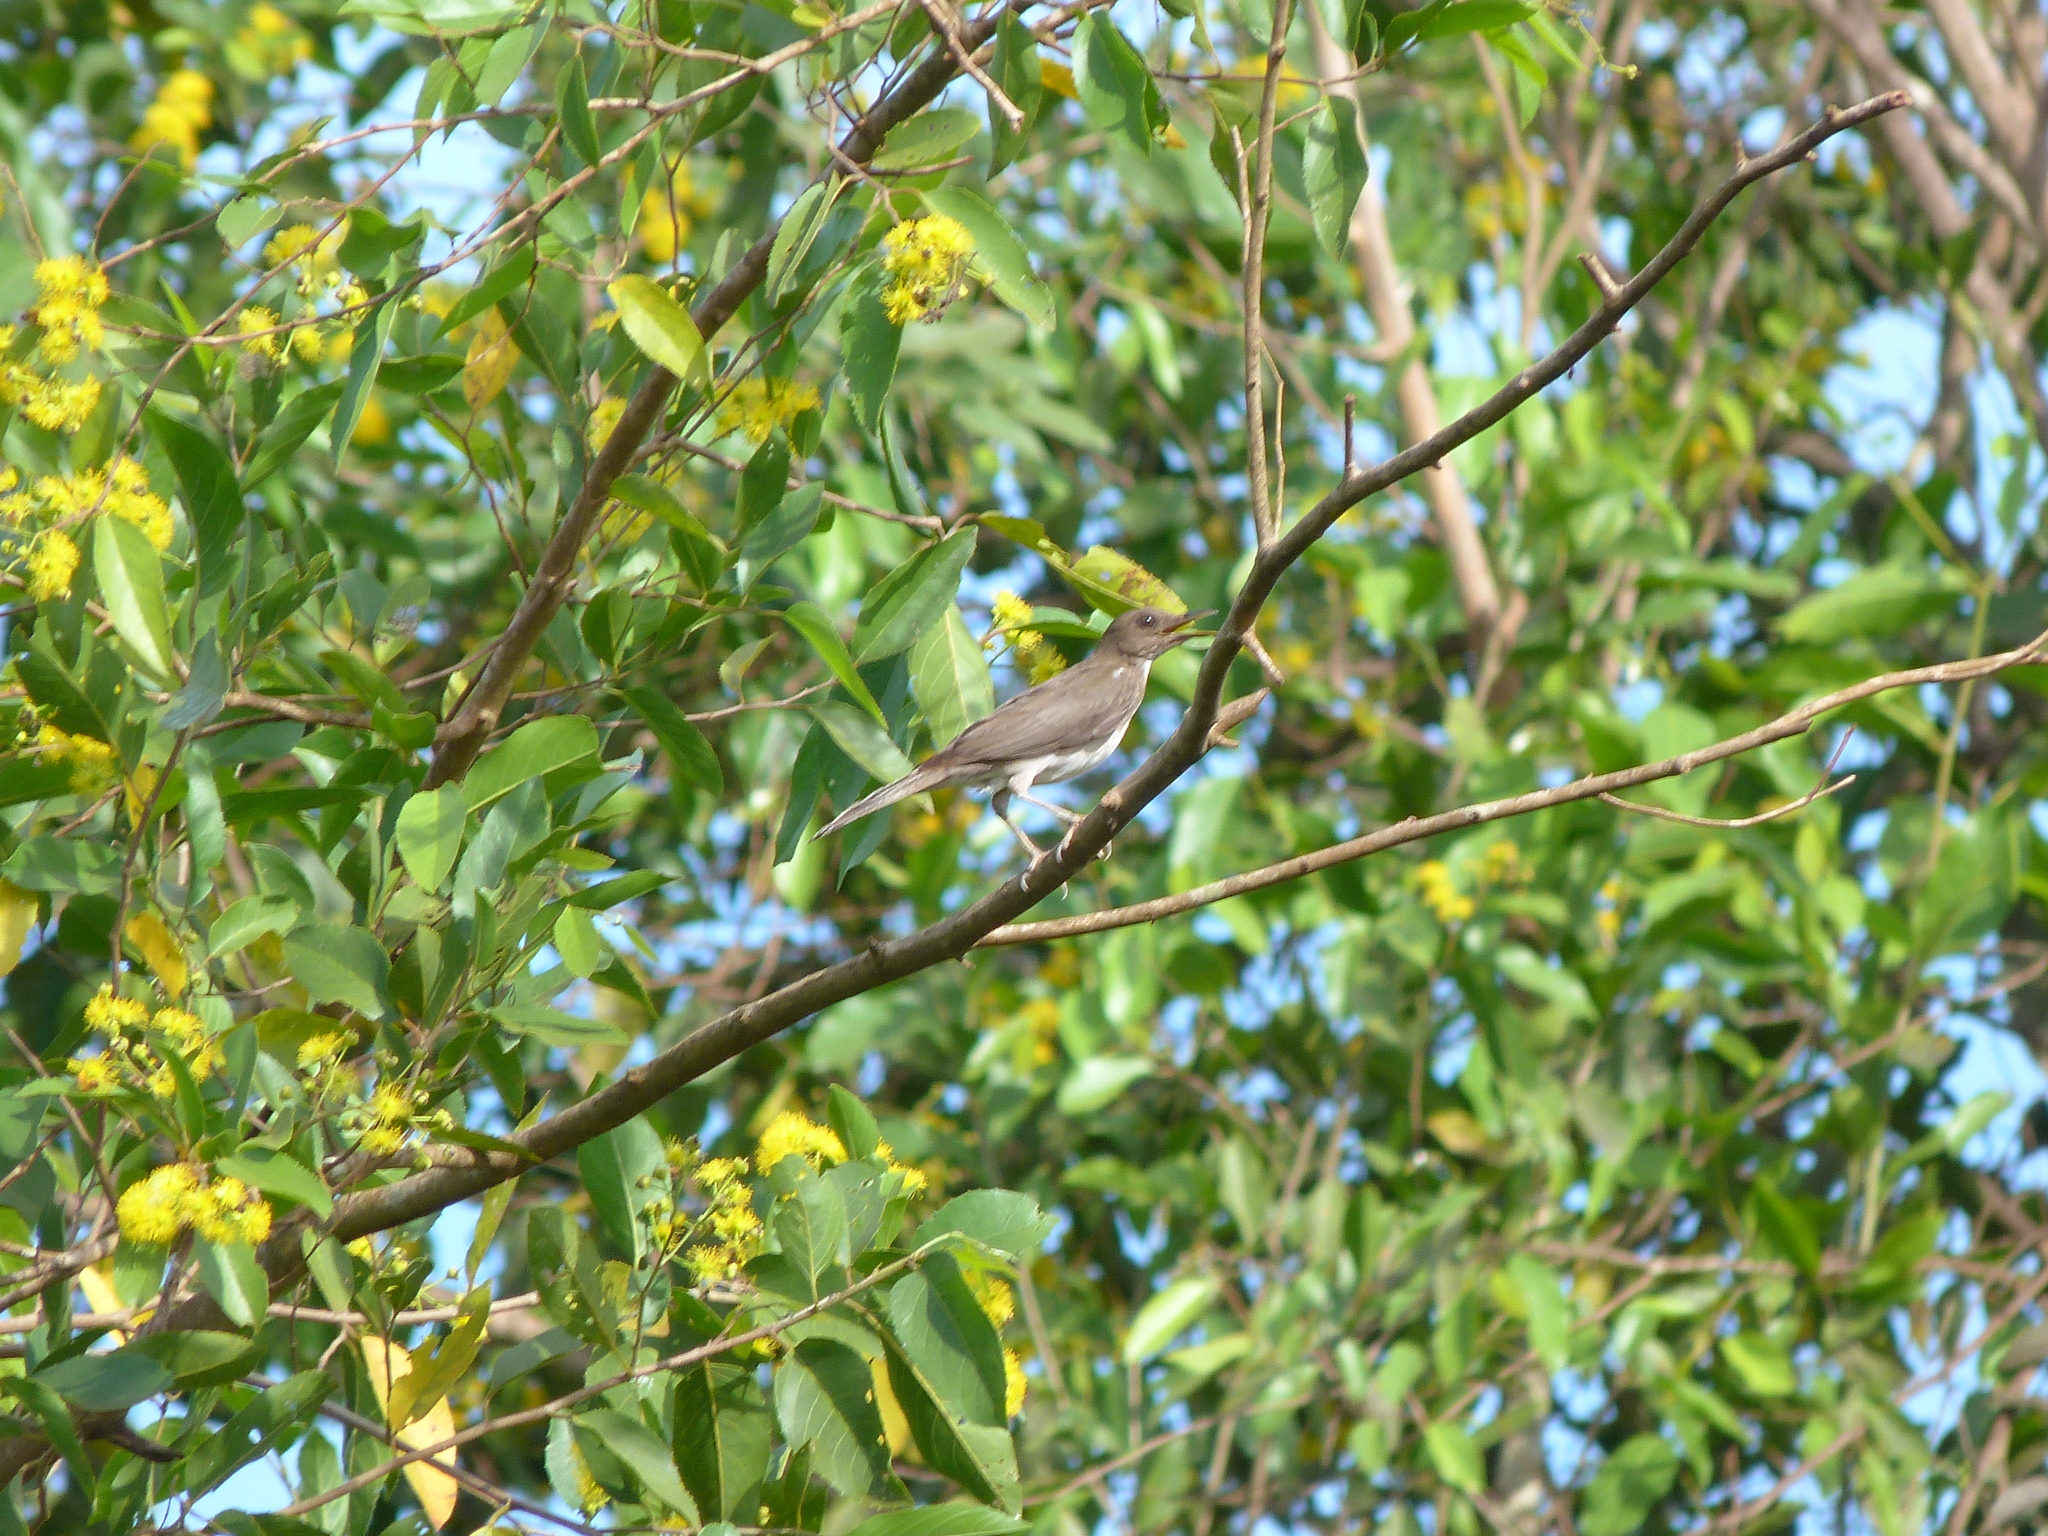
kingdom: Animalia
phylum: Chordata
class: Aves
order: Passeriformes
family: Turdidae
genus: Turdus
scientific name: Turdus ignobilis
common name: Black-billed thrush
